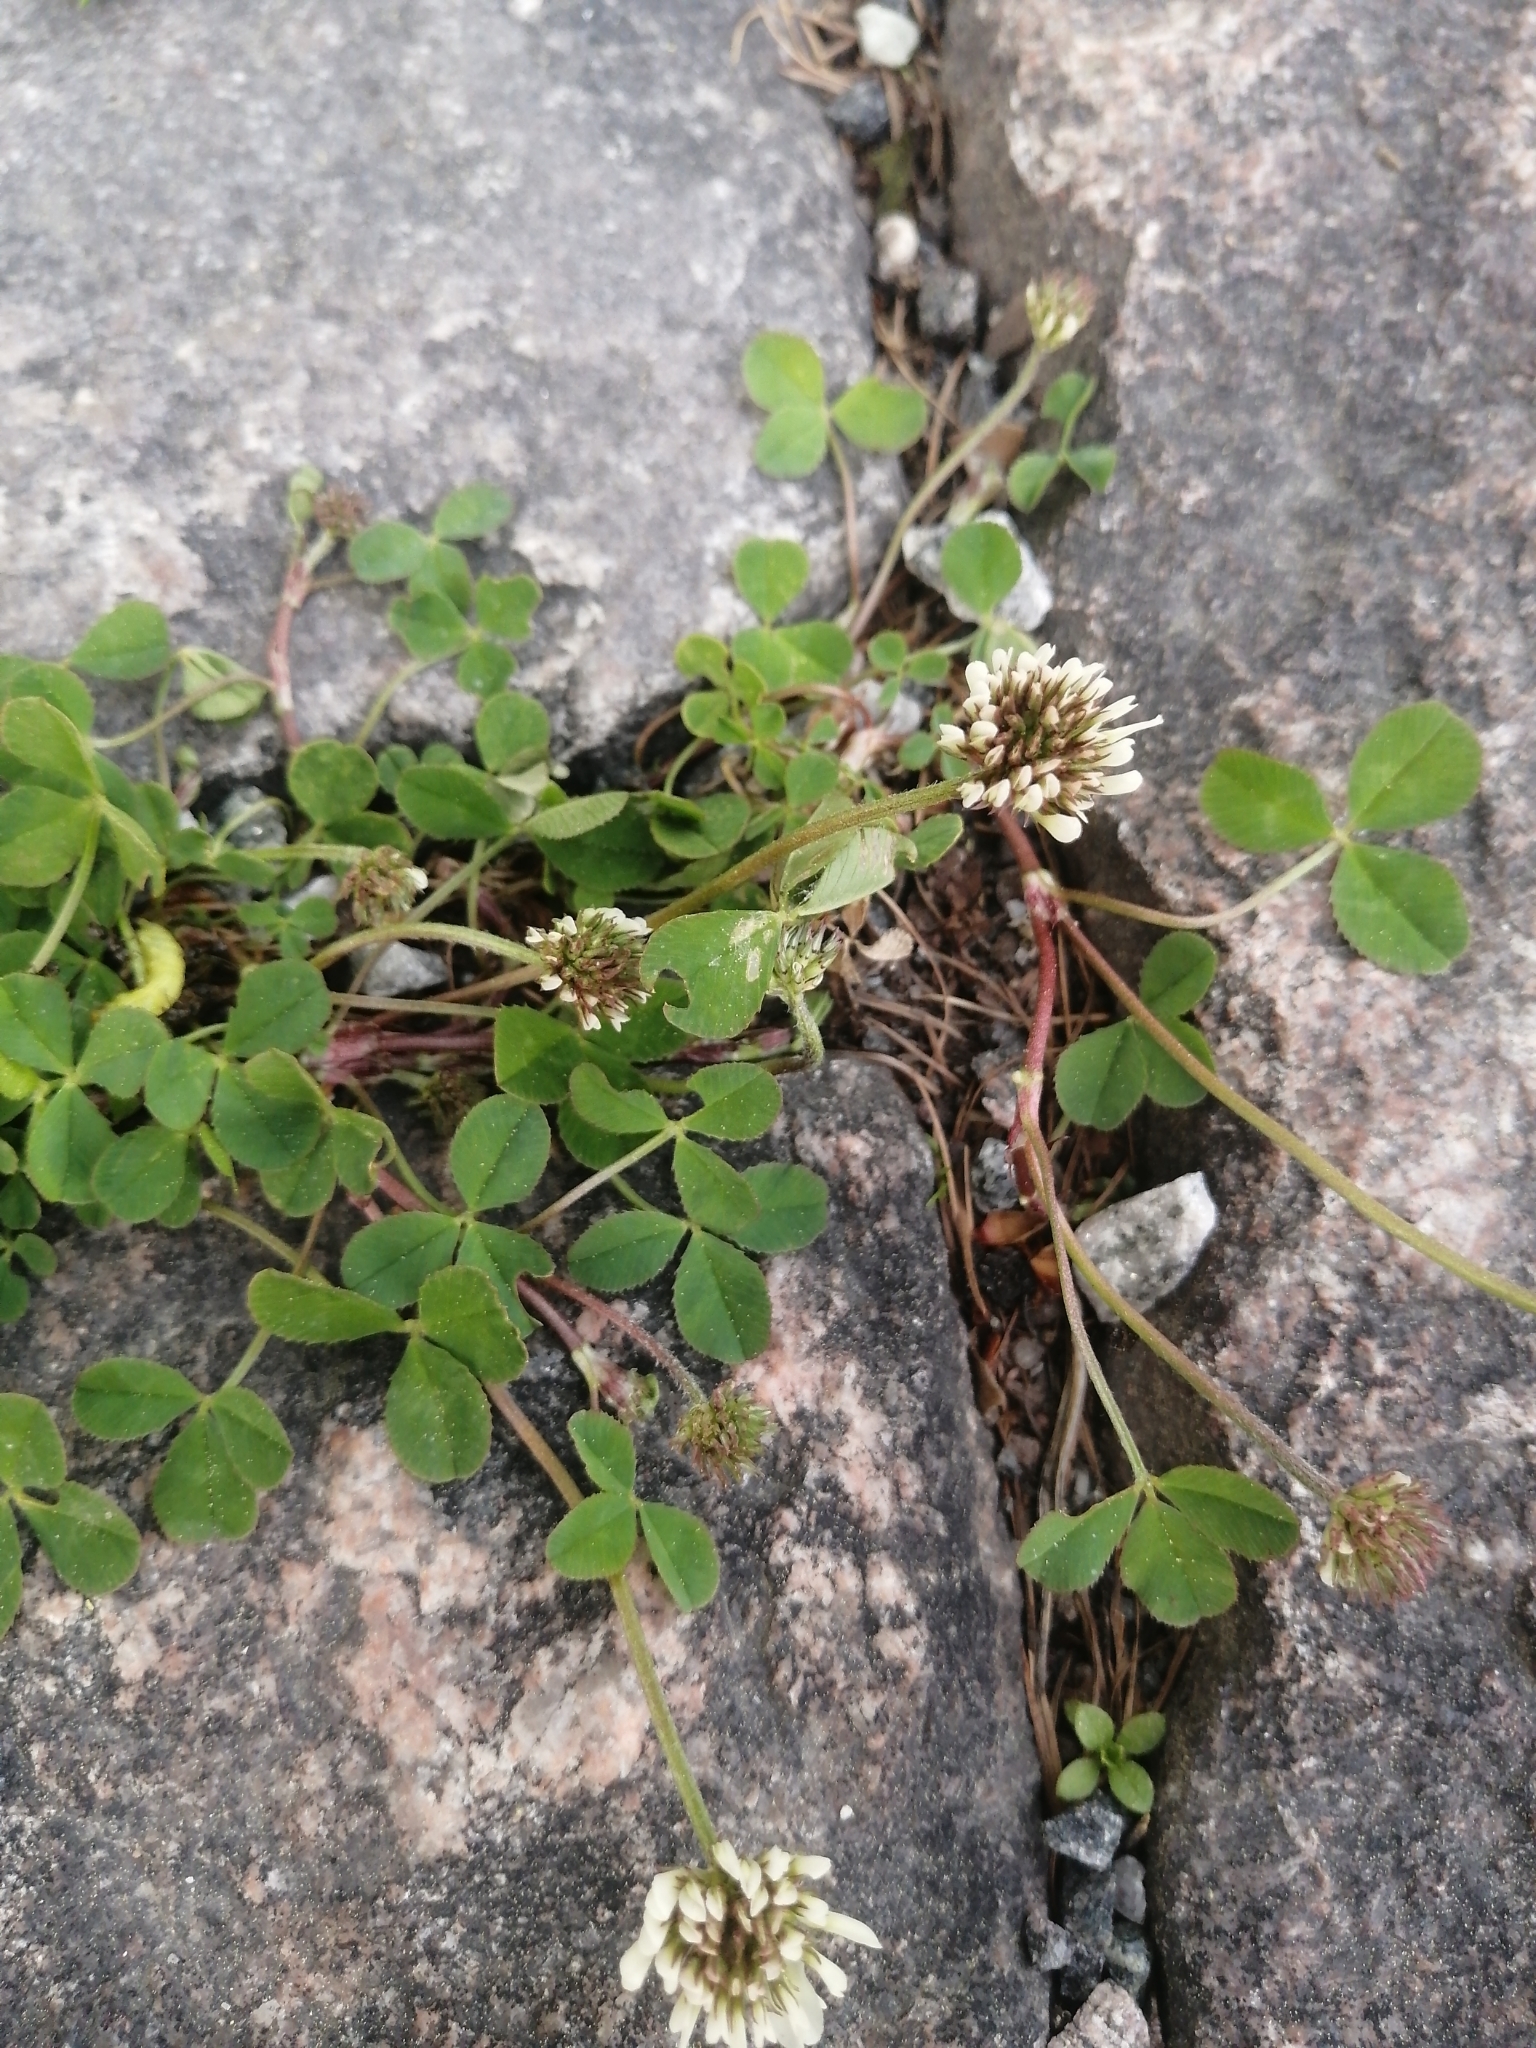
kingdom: Plantae
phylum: Tracheophyta
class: Magnoliopsida
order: Fabales
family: Fabaceae
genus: Trifolium
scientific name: Trifolium repens
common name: White clover
